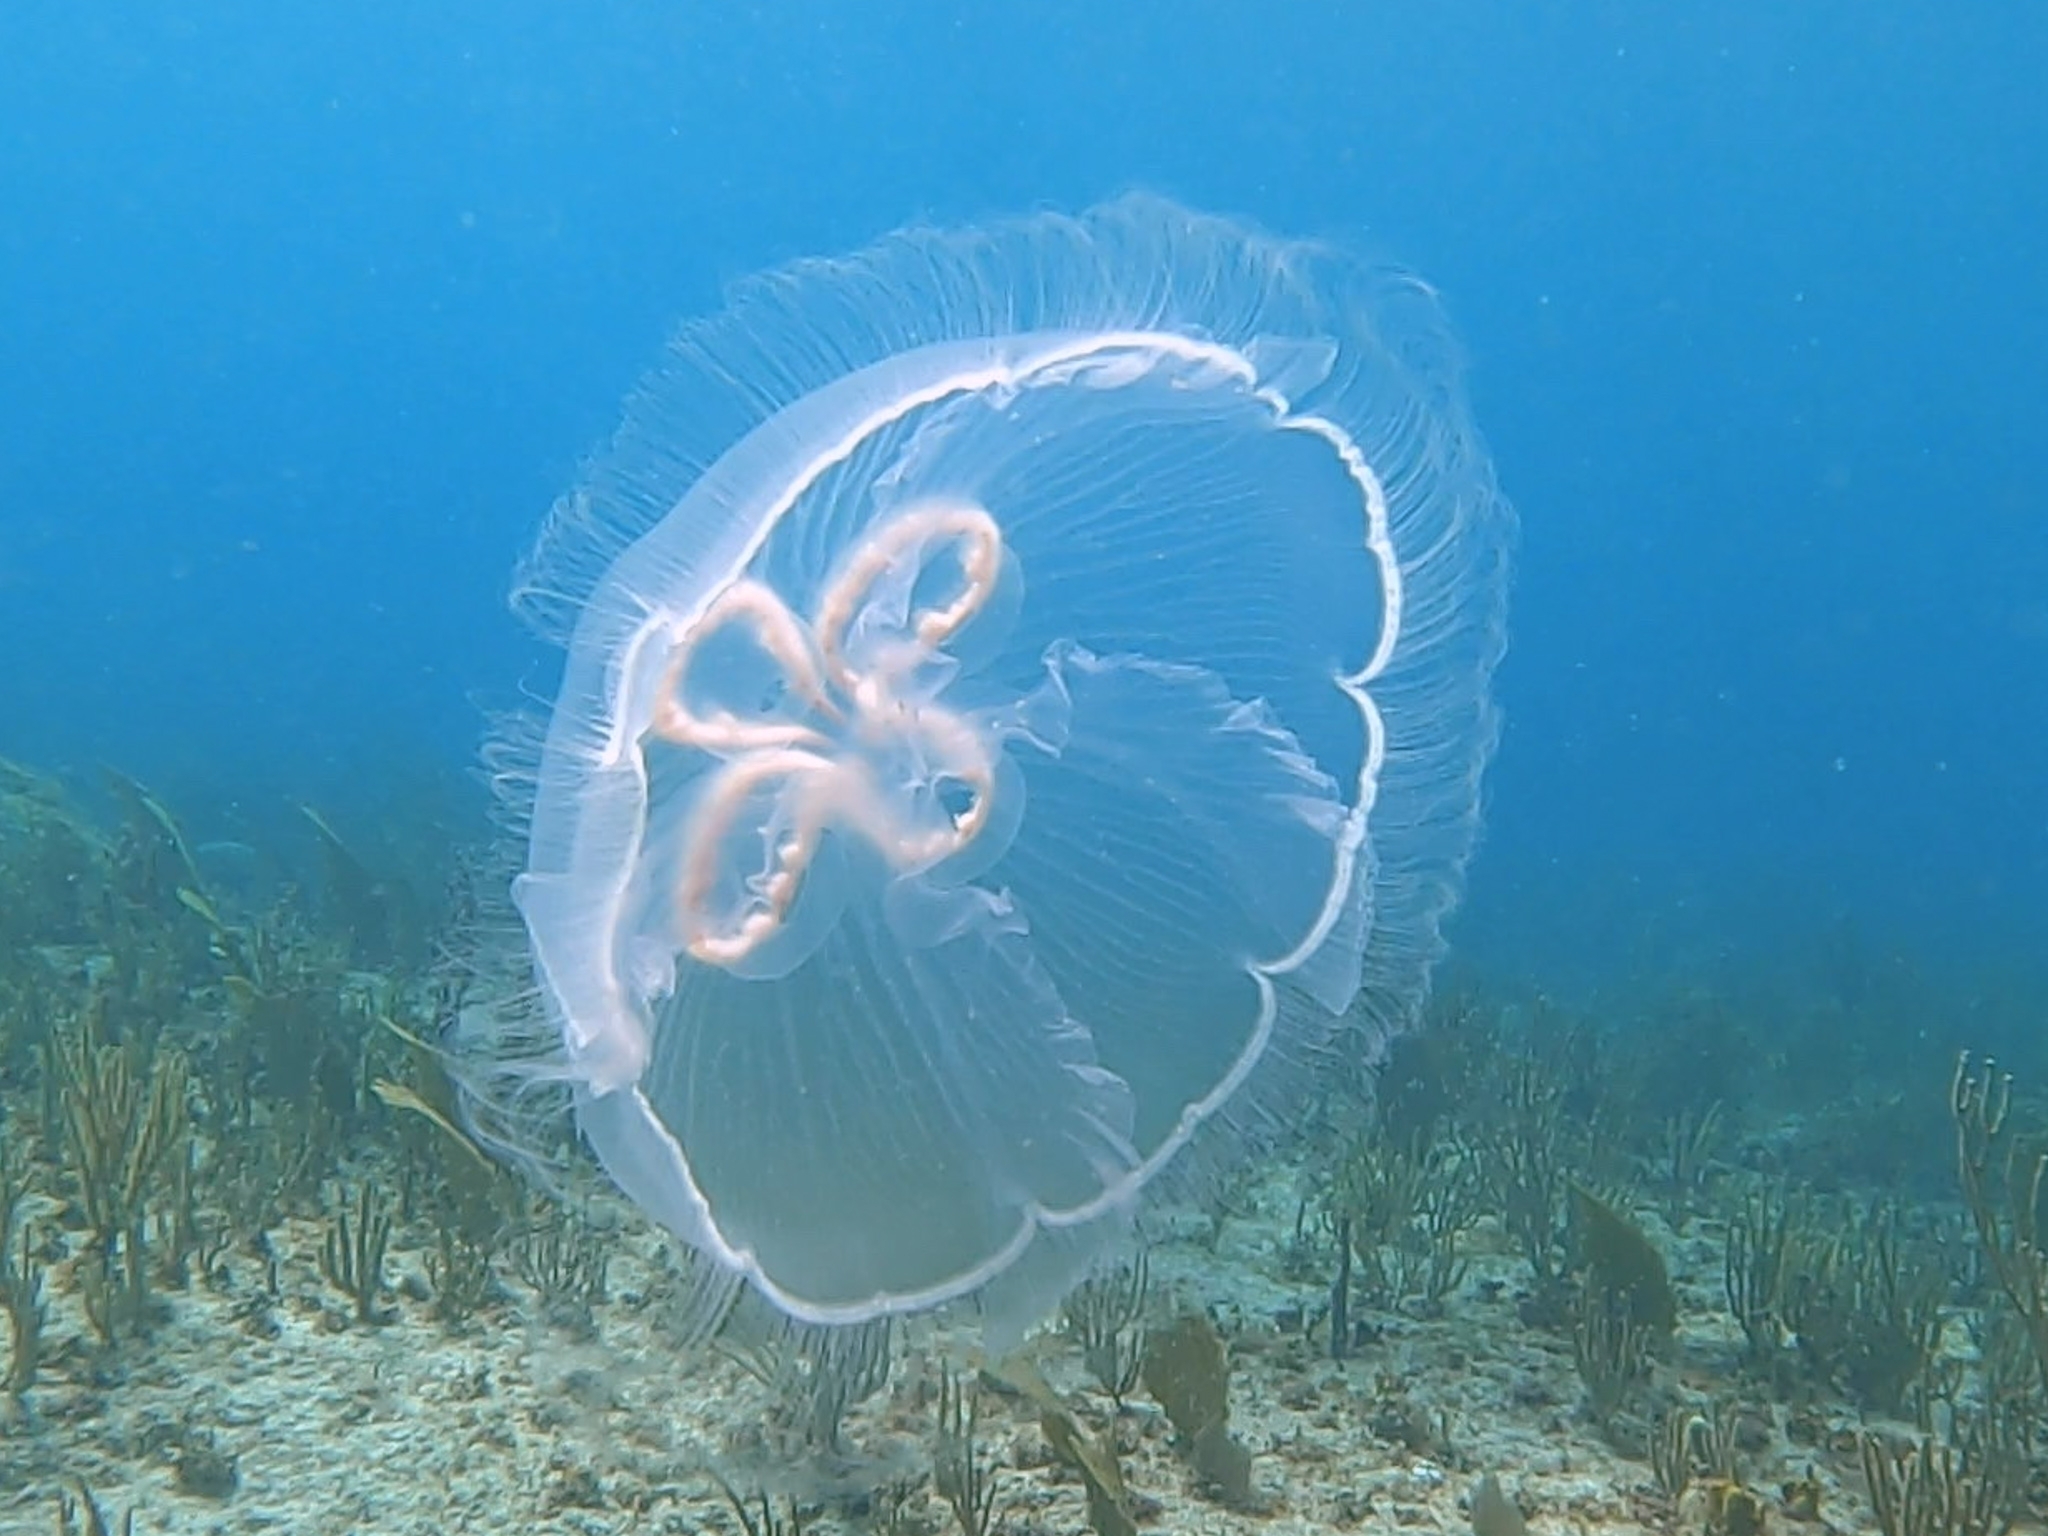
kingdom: Animalia
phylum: Cnidaria
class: Scyphozoa
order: Semaeostomeae
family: Ulmaridae
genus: Aurelia
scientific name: Aurelia marginalis
